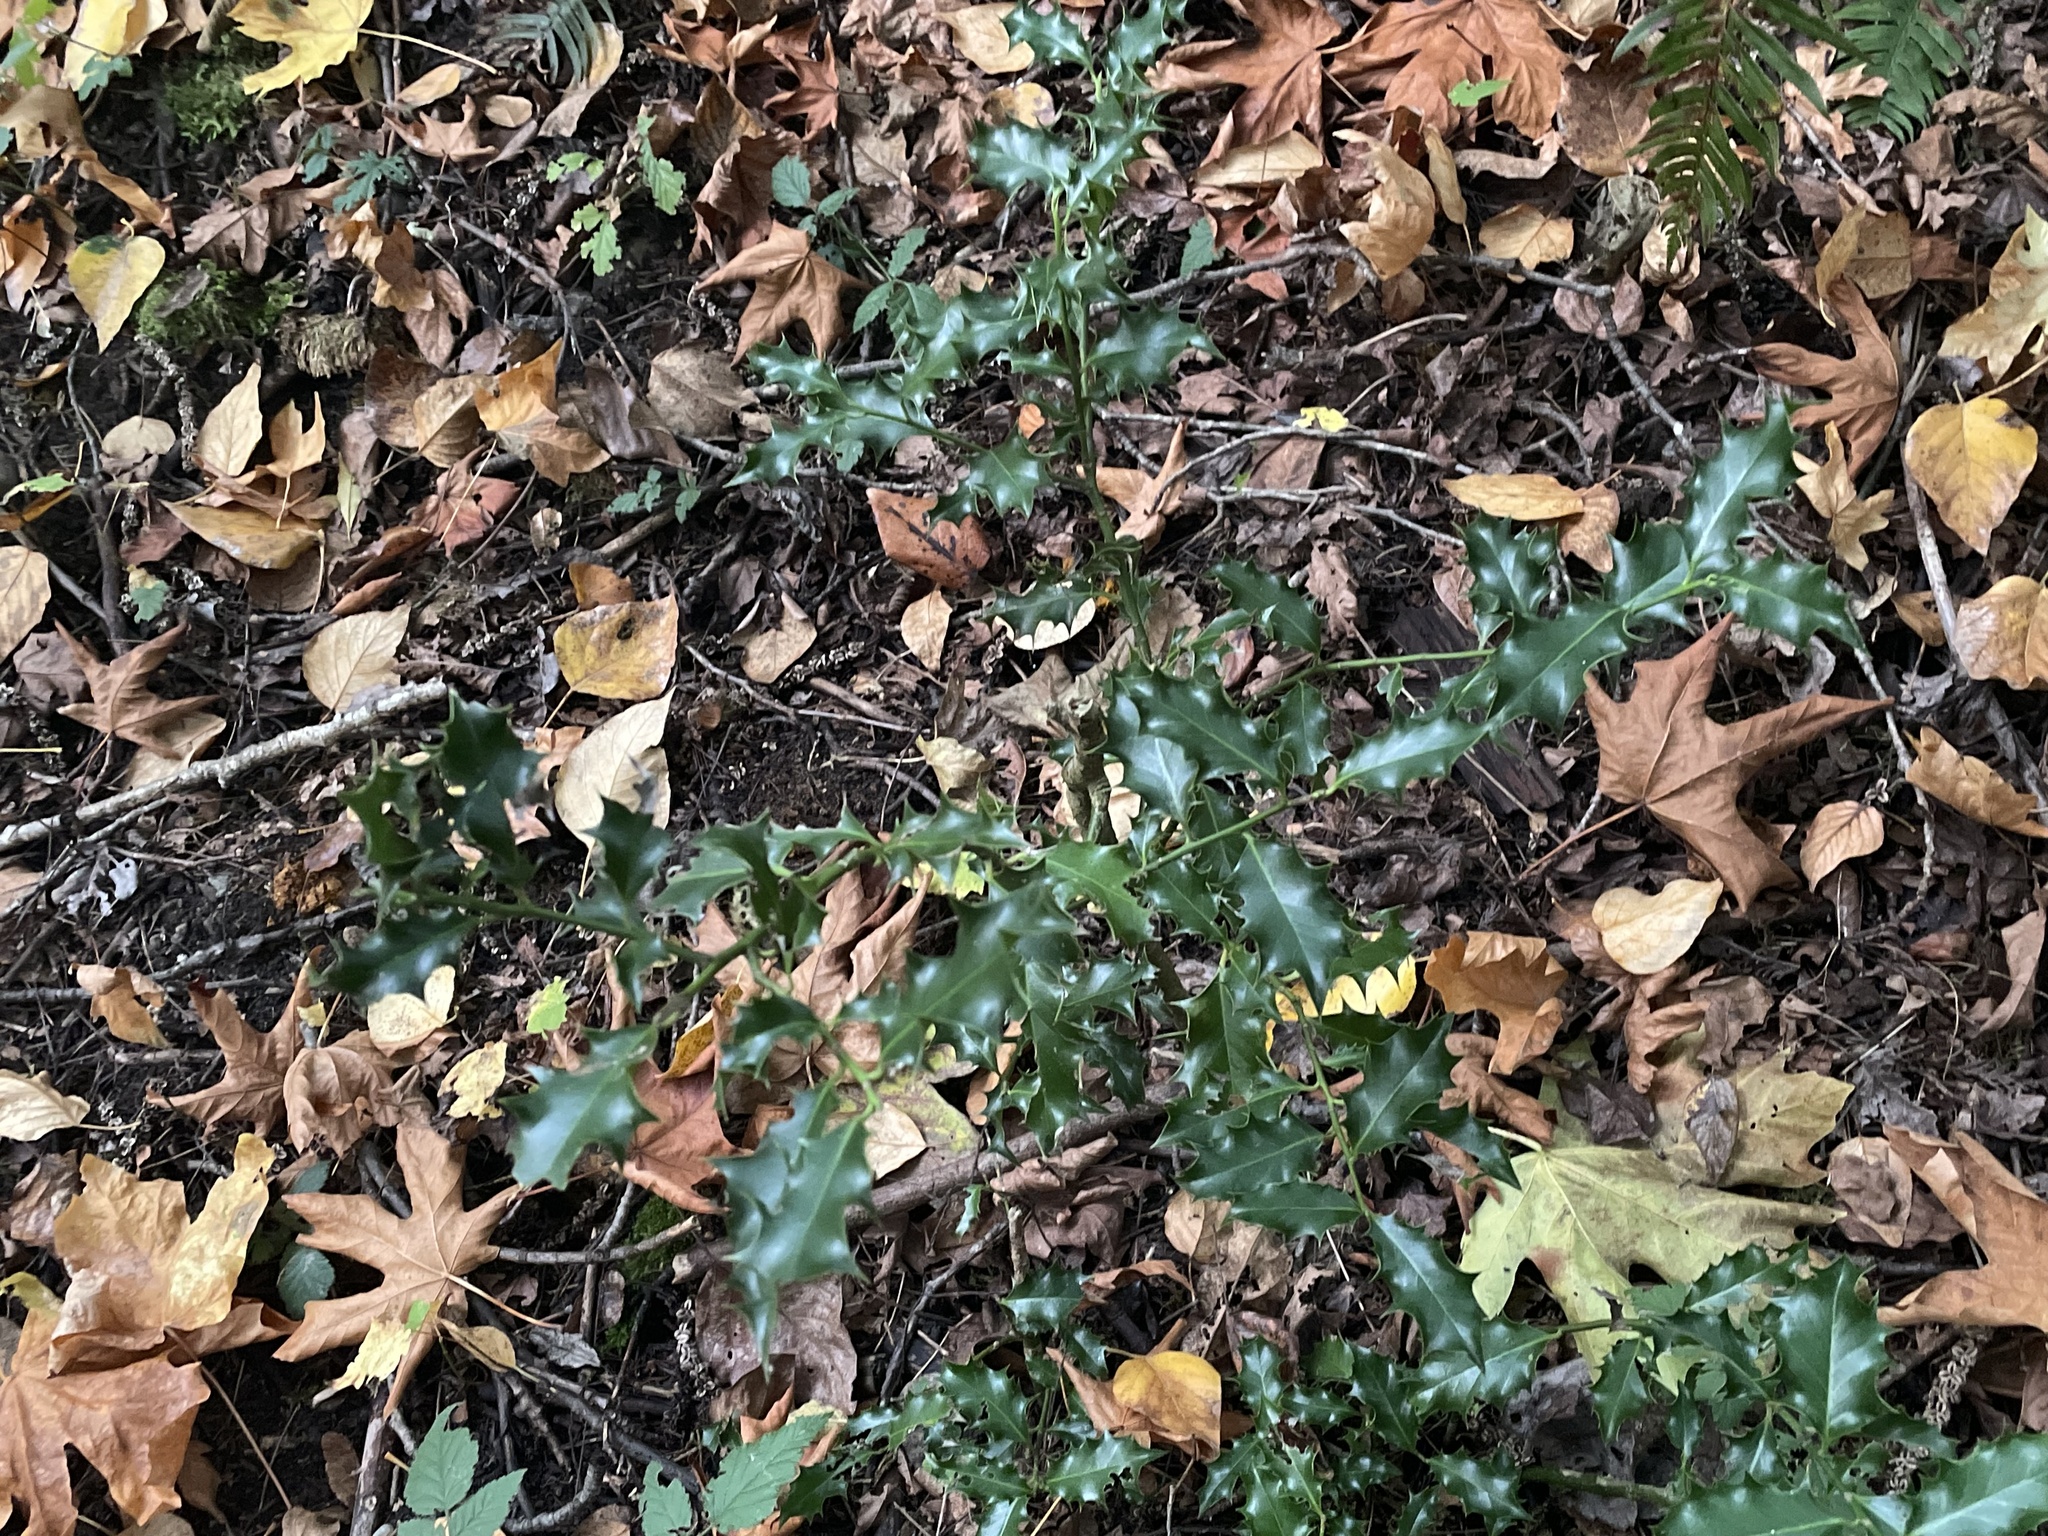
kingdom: Plantae
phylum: Tracheophyta
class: Magnoliopsida
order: Aquifoliales
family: Aquifoliaceae
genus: Ilex
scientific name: Ilex aquifolium
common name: English holly
